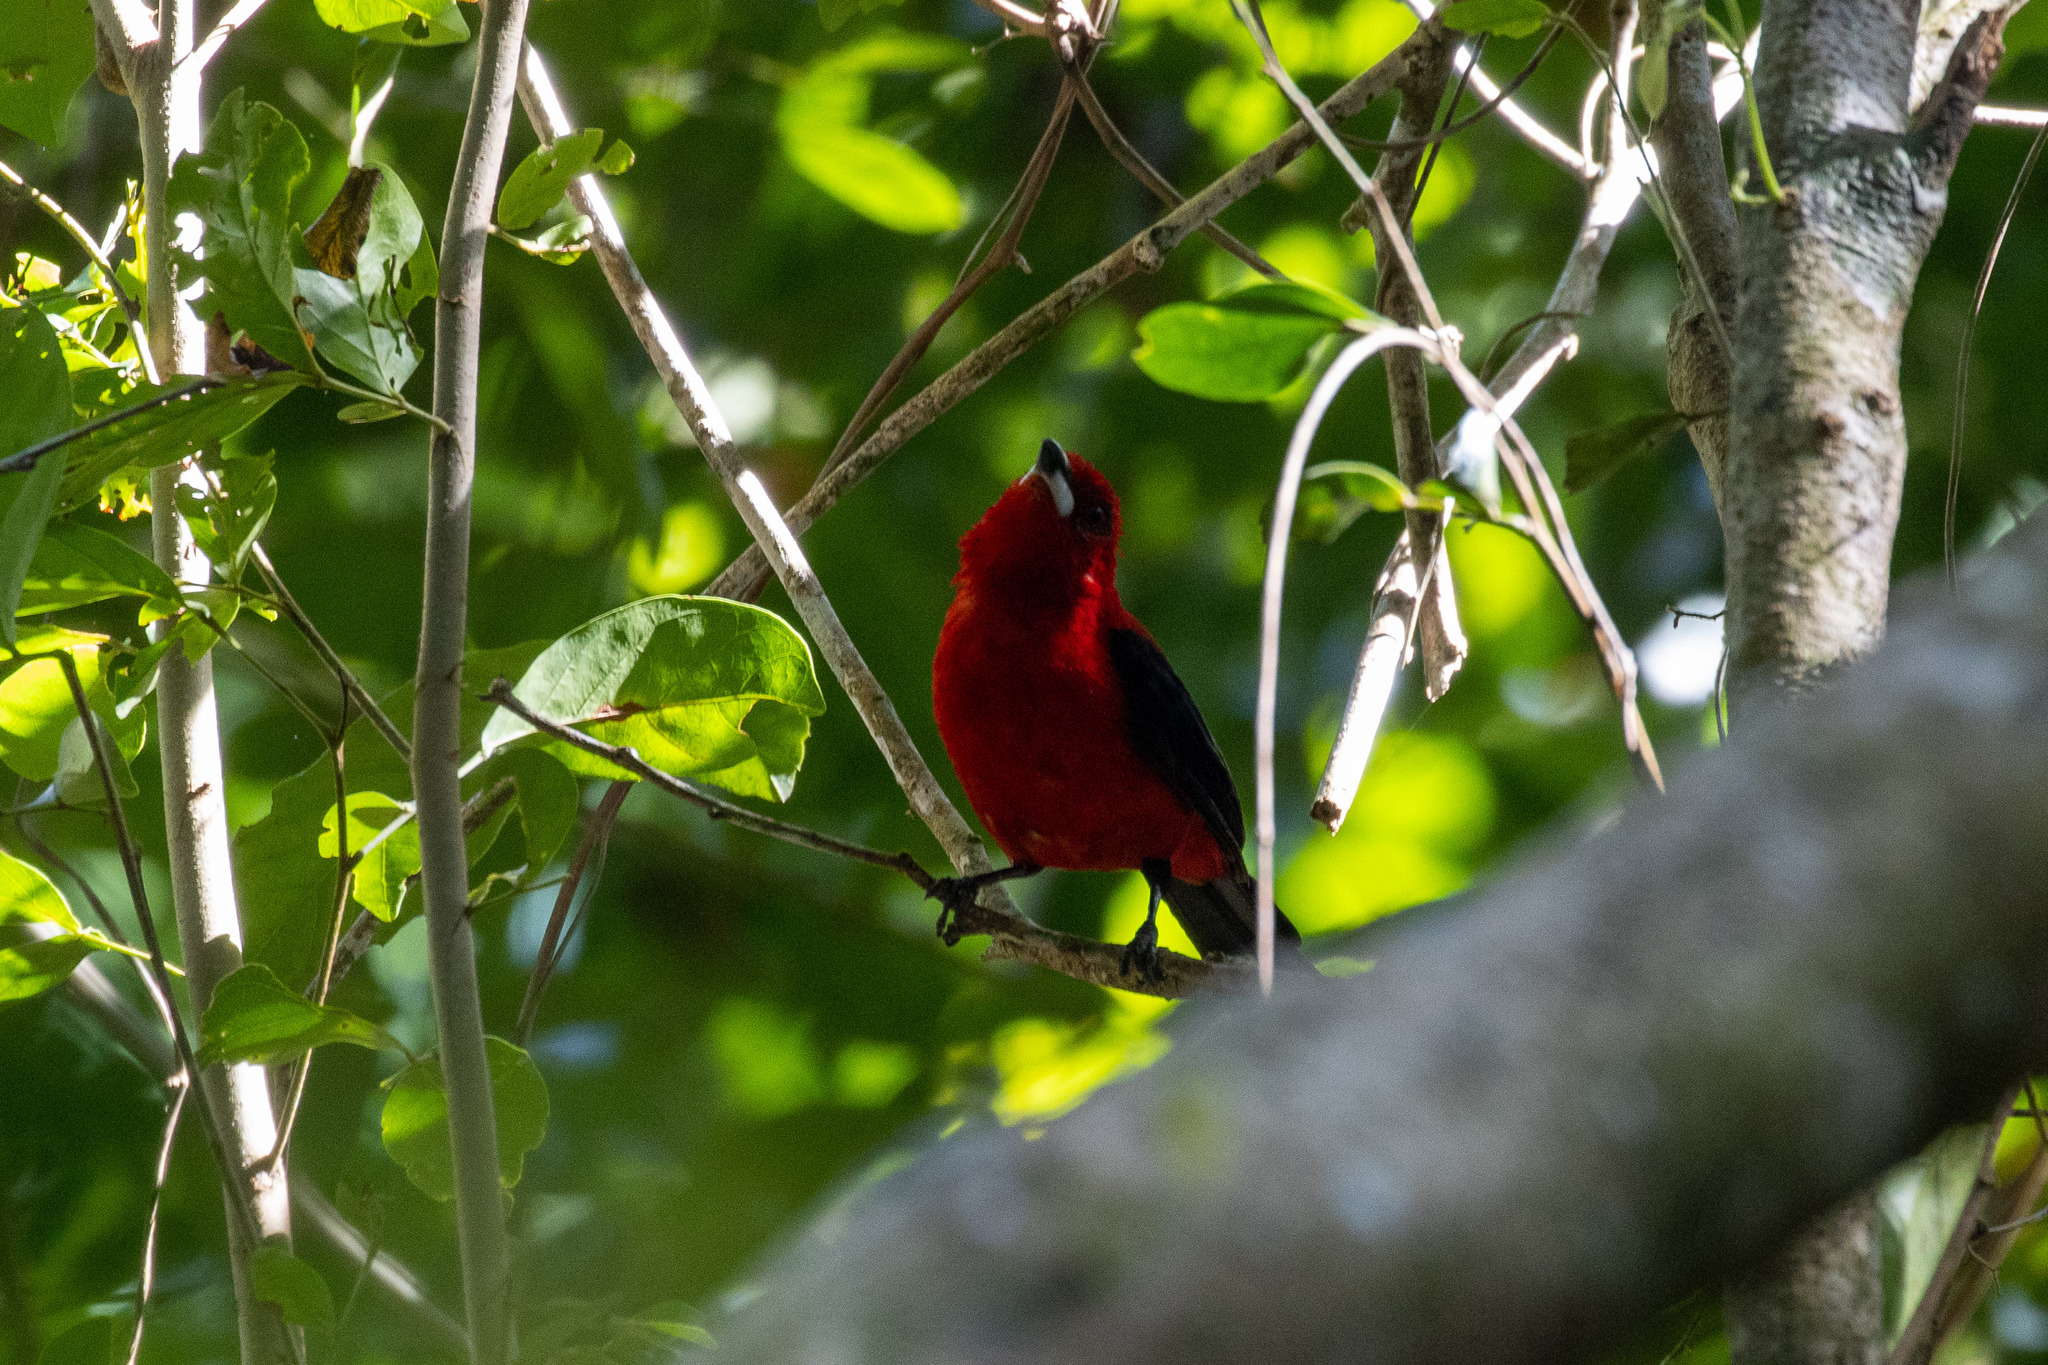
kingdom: Animalia
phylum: Chordata
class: Aves
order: Passeriformes
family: Thraupidae
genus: Ramphocelus
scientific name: Ramphocelus bresilia
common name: Brazilian tanager
